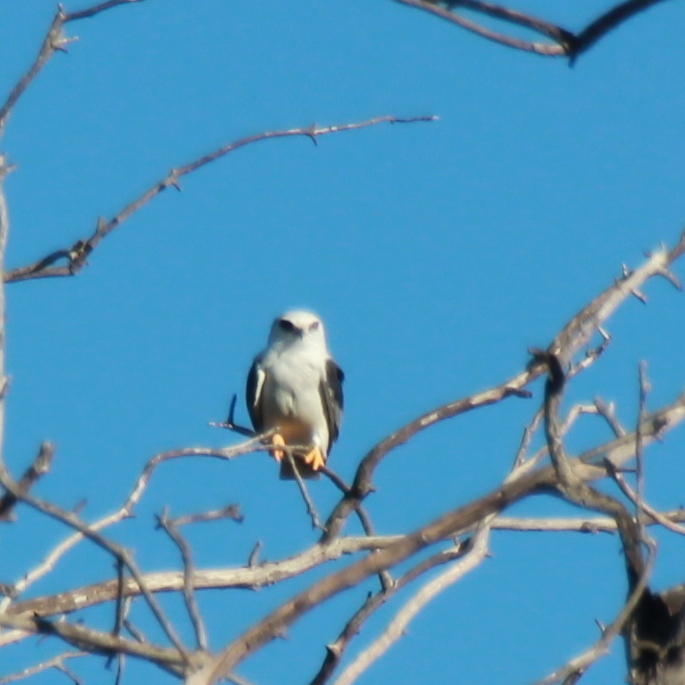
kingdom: Animalia
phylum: Chordata
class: Aves
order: Accipitriformes
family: Accipitridae
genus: Elanus
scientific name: Elanus leucurus
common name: White-tailed kite
